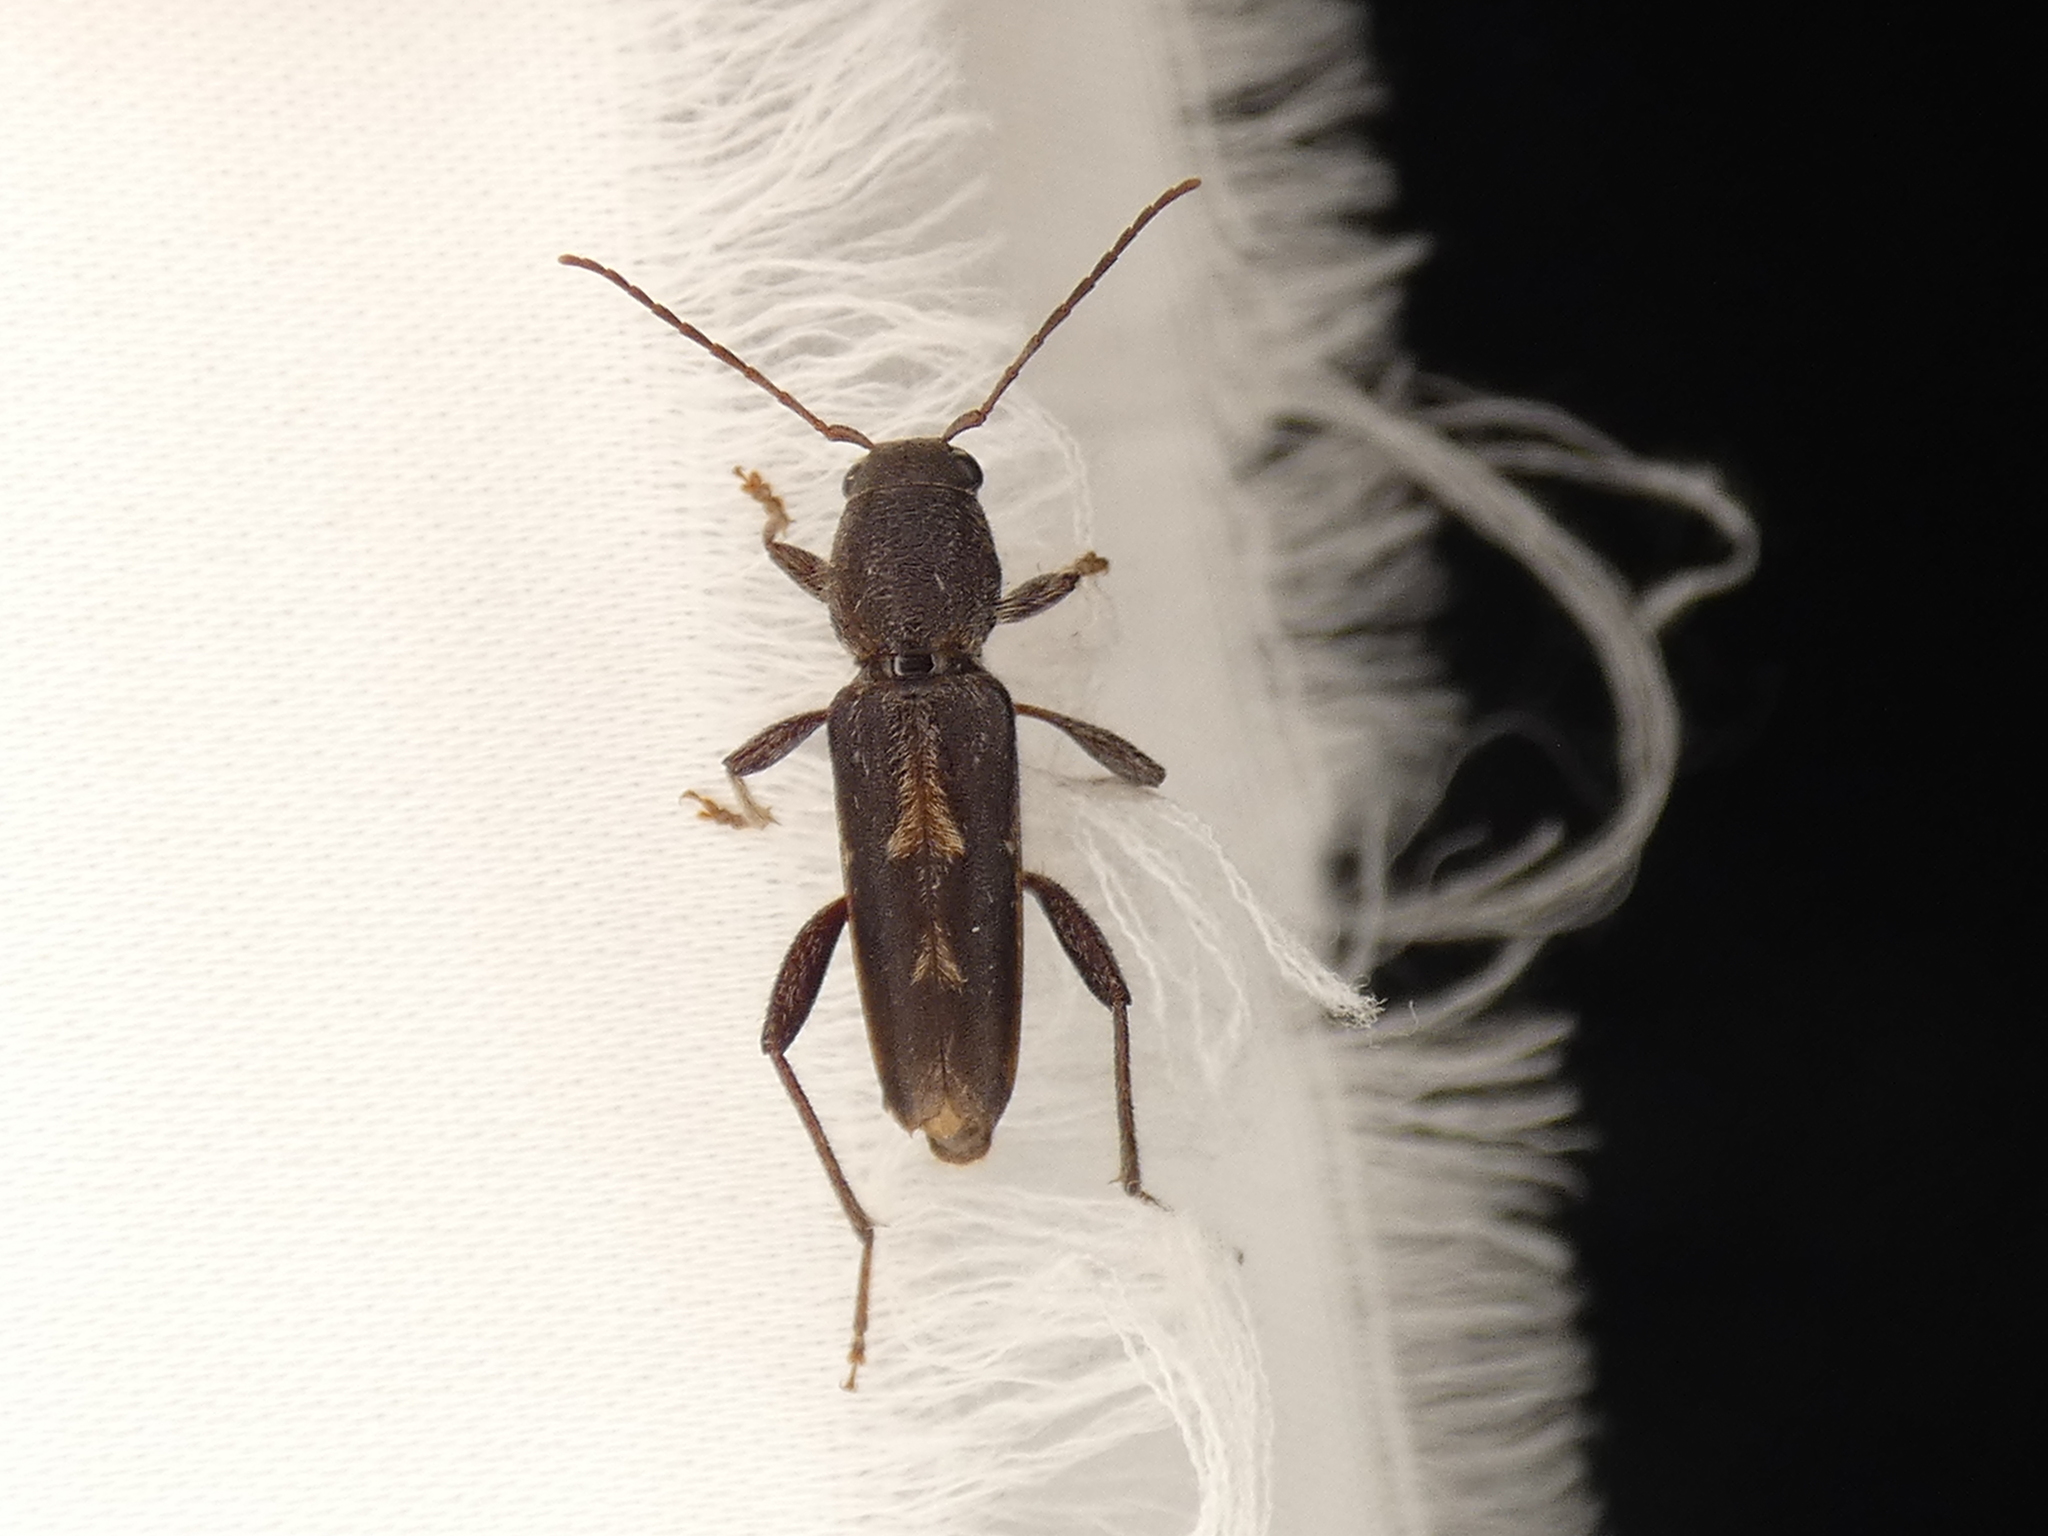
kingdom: Animalia
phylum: Arthropoda
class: Insecta
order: Coleoptera
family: Cerambycidae
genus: Xylotrechus
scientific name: Xylotrechus sagittatus
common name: Arrowhead borer
